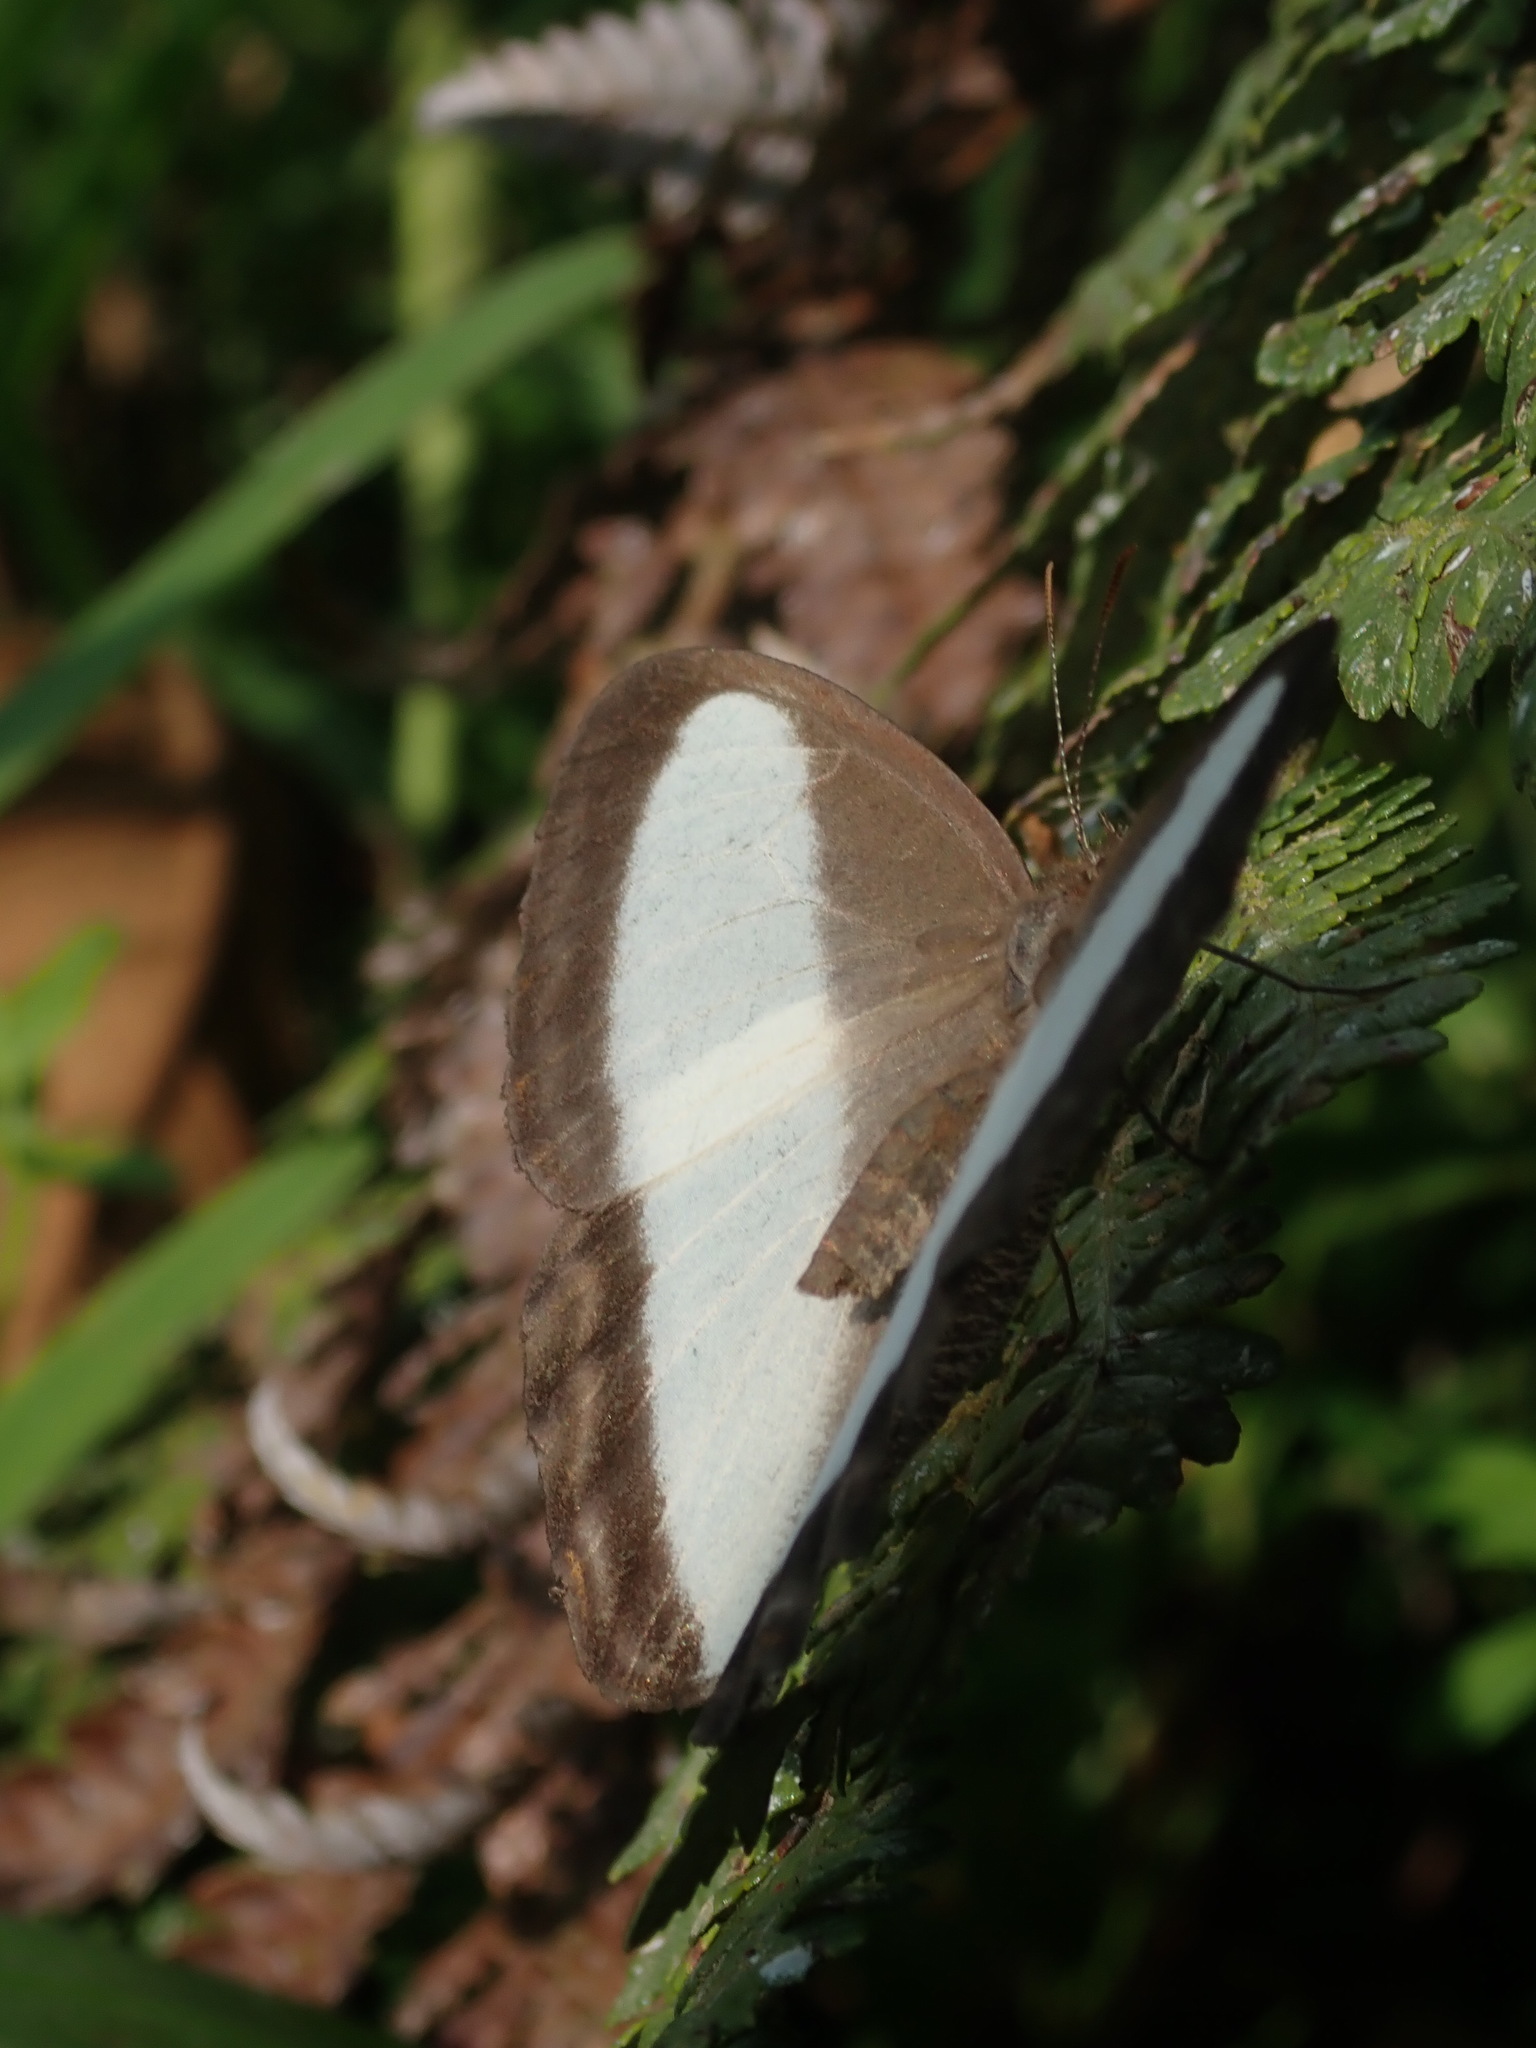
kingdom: Animalia
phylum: Arthropoda
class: Insecta
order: Lepidoptera
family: Nymphalidae
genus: Oressinoma
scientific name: Oressinoma typhla
